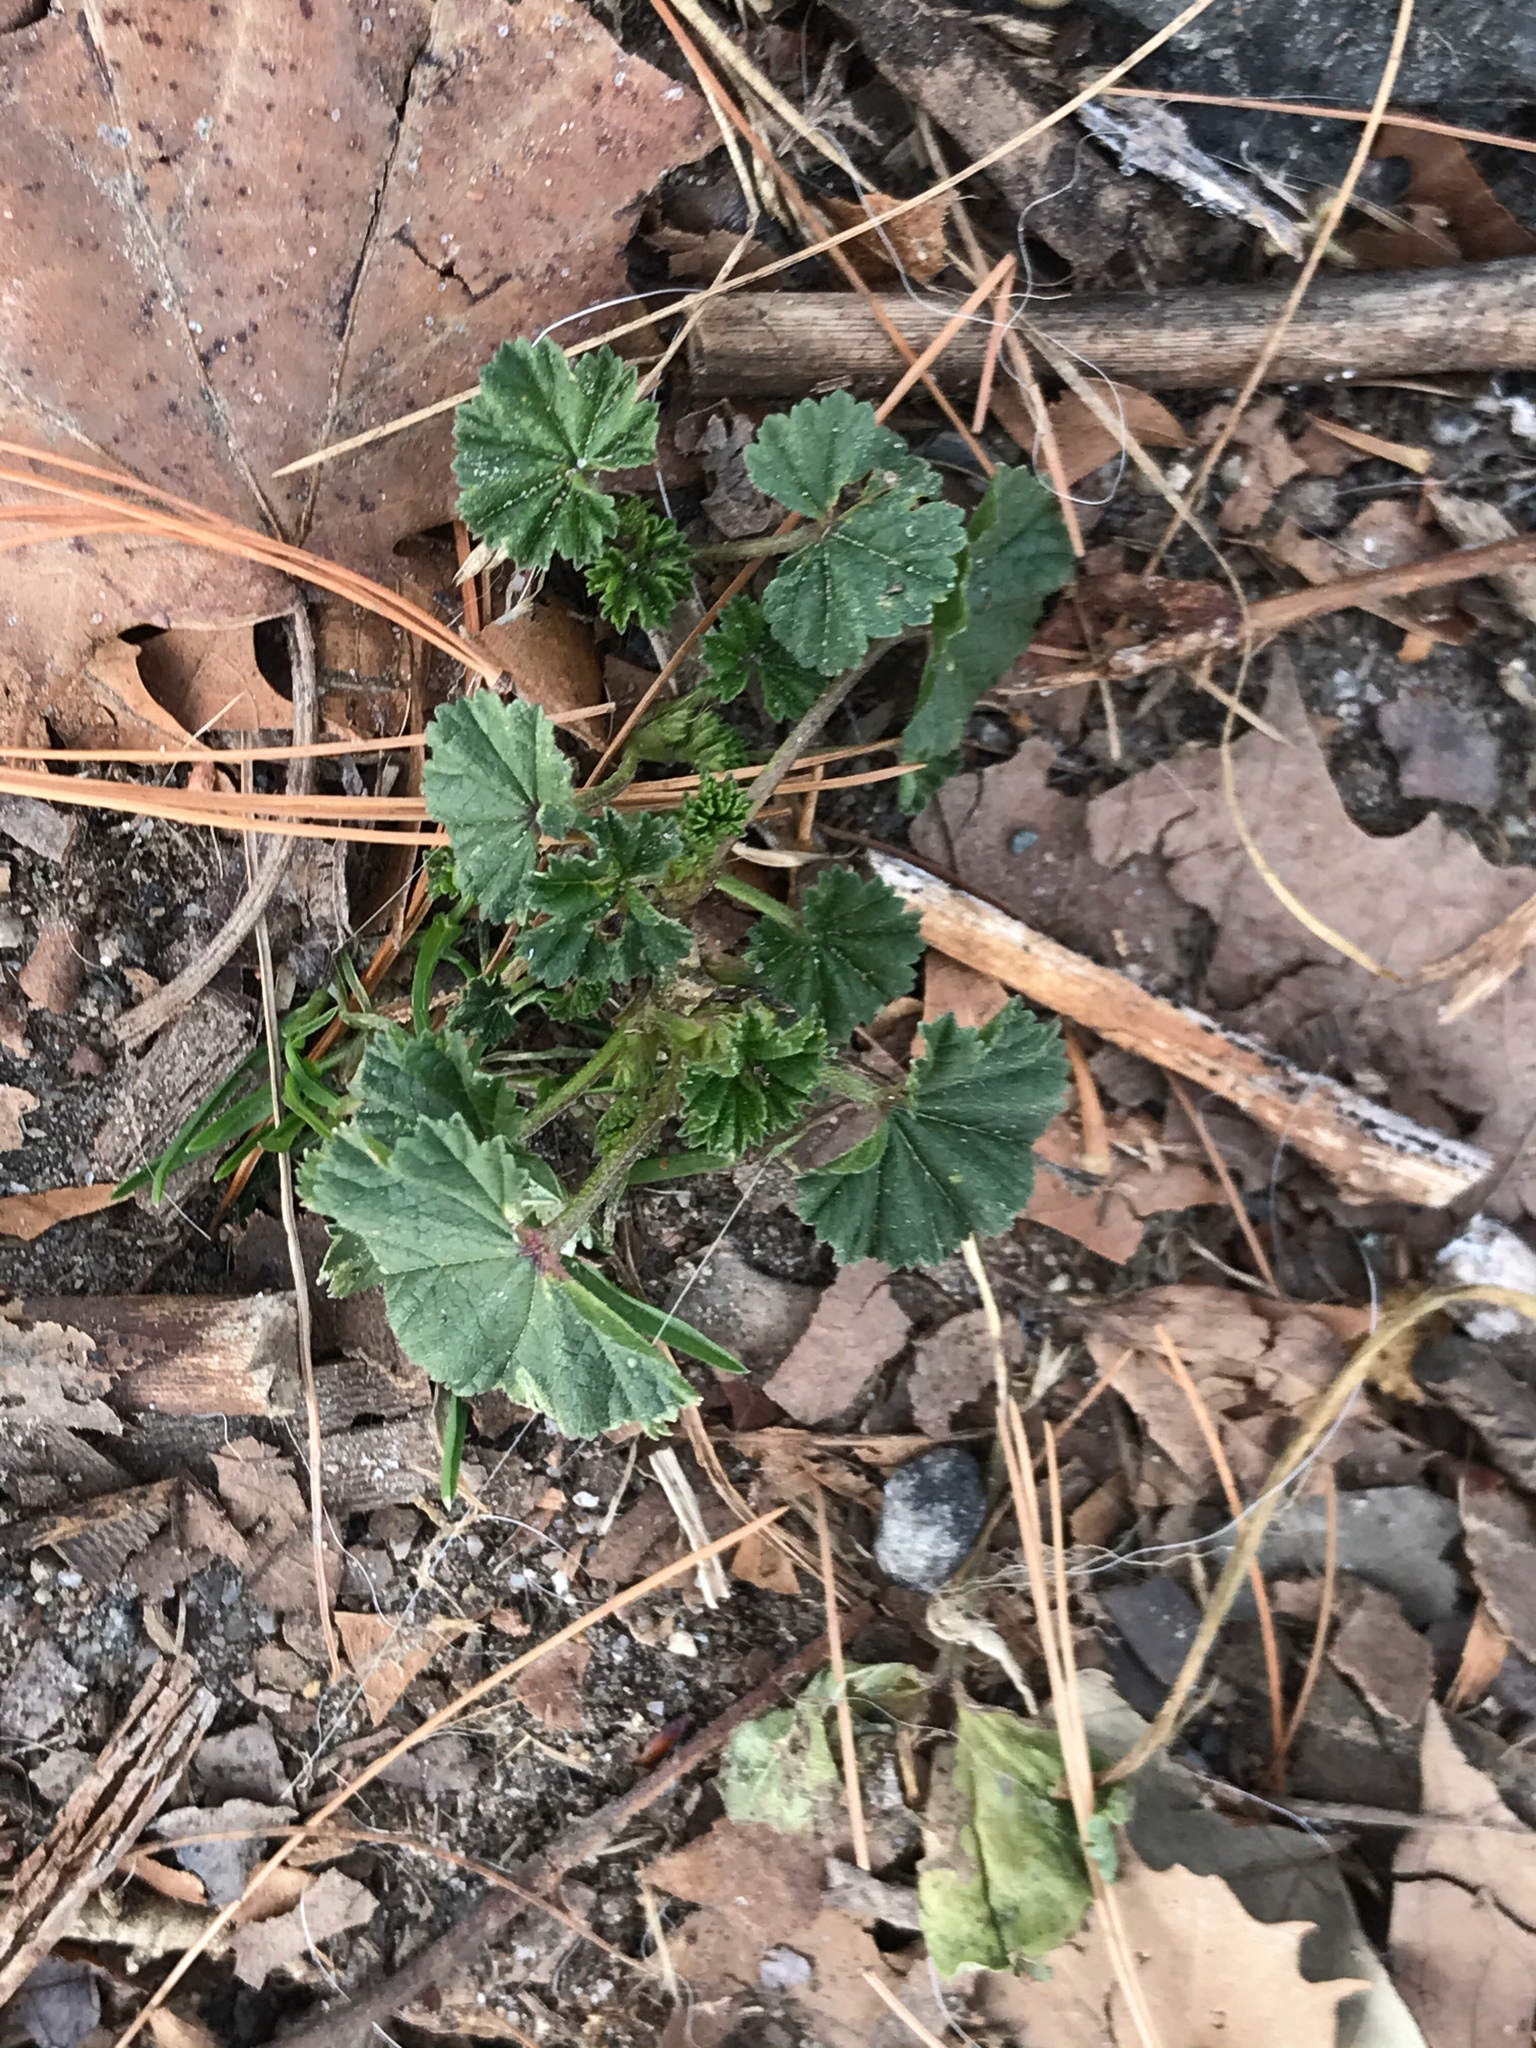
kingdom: Plantae
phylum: Tracheophyta
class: Magnoliopsida
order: Malvales
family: Malvaceae
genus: Malva
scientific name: Malva neglecta
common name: Common mallow
